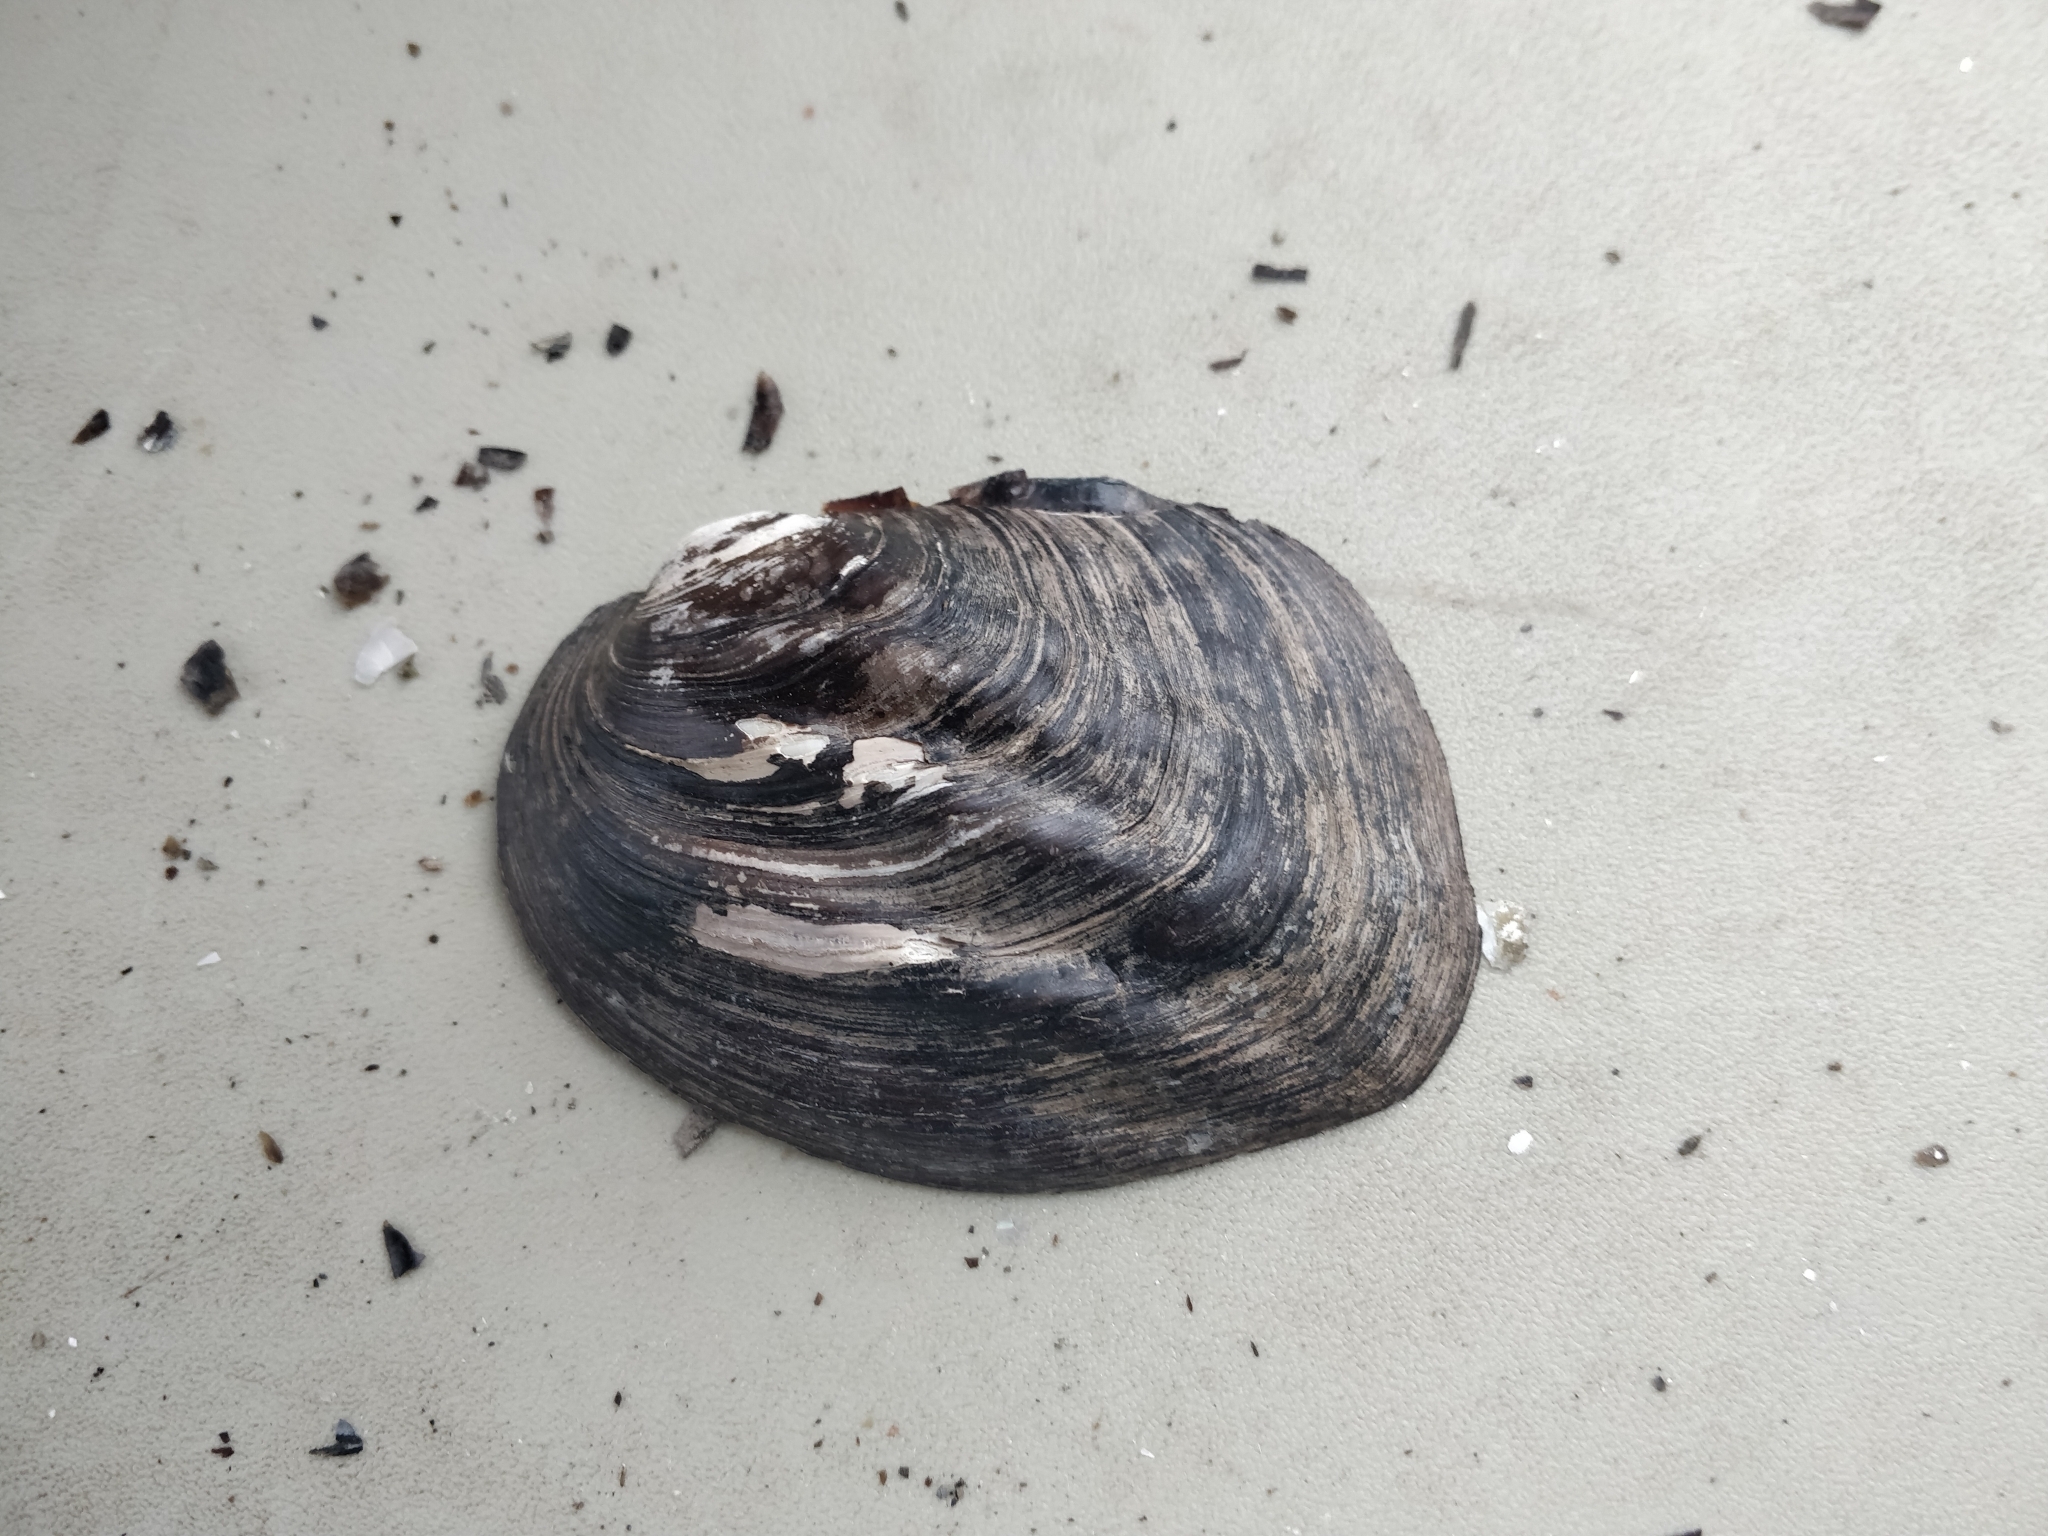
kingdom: Animalia
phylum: Mollusca
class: Bivalvia
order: Unionida
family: Unionidae
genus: Amblema
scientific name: Amblema plicata
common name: Threeridge
